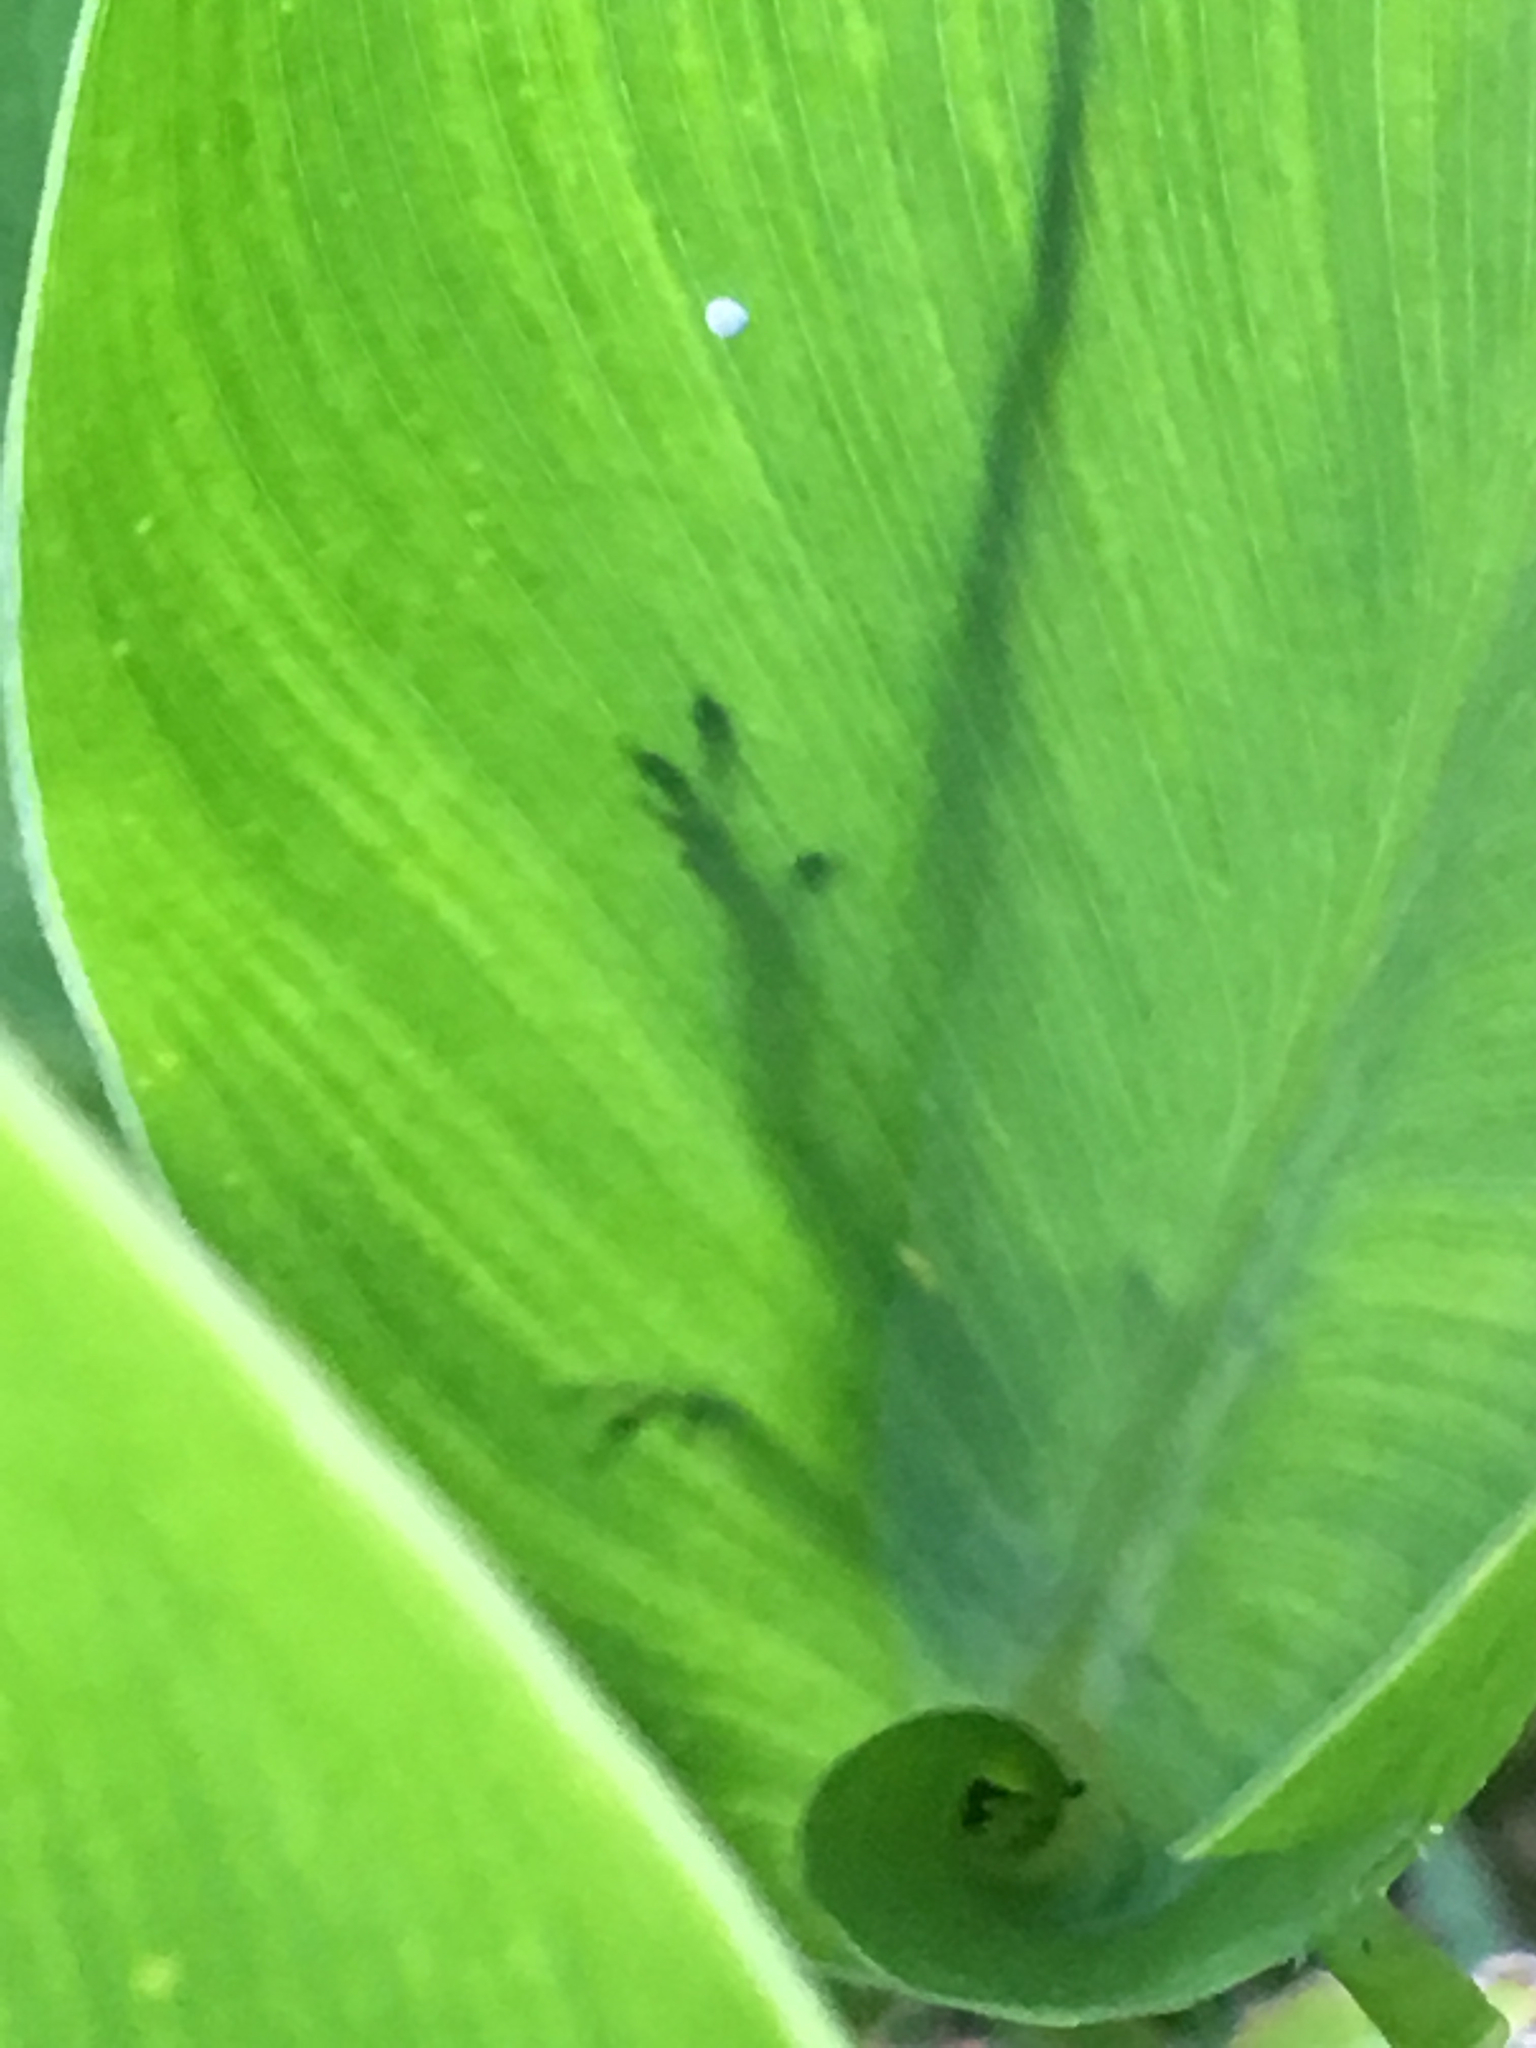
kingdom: Animalia
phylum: Chordata
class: Squamata
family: Dactyloidae
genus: Anolis
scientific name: Anolis carolinensis
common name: Green anole
